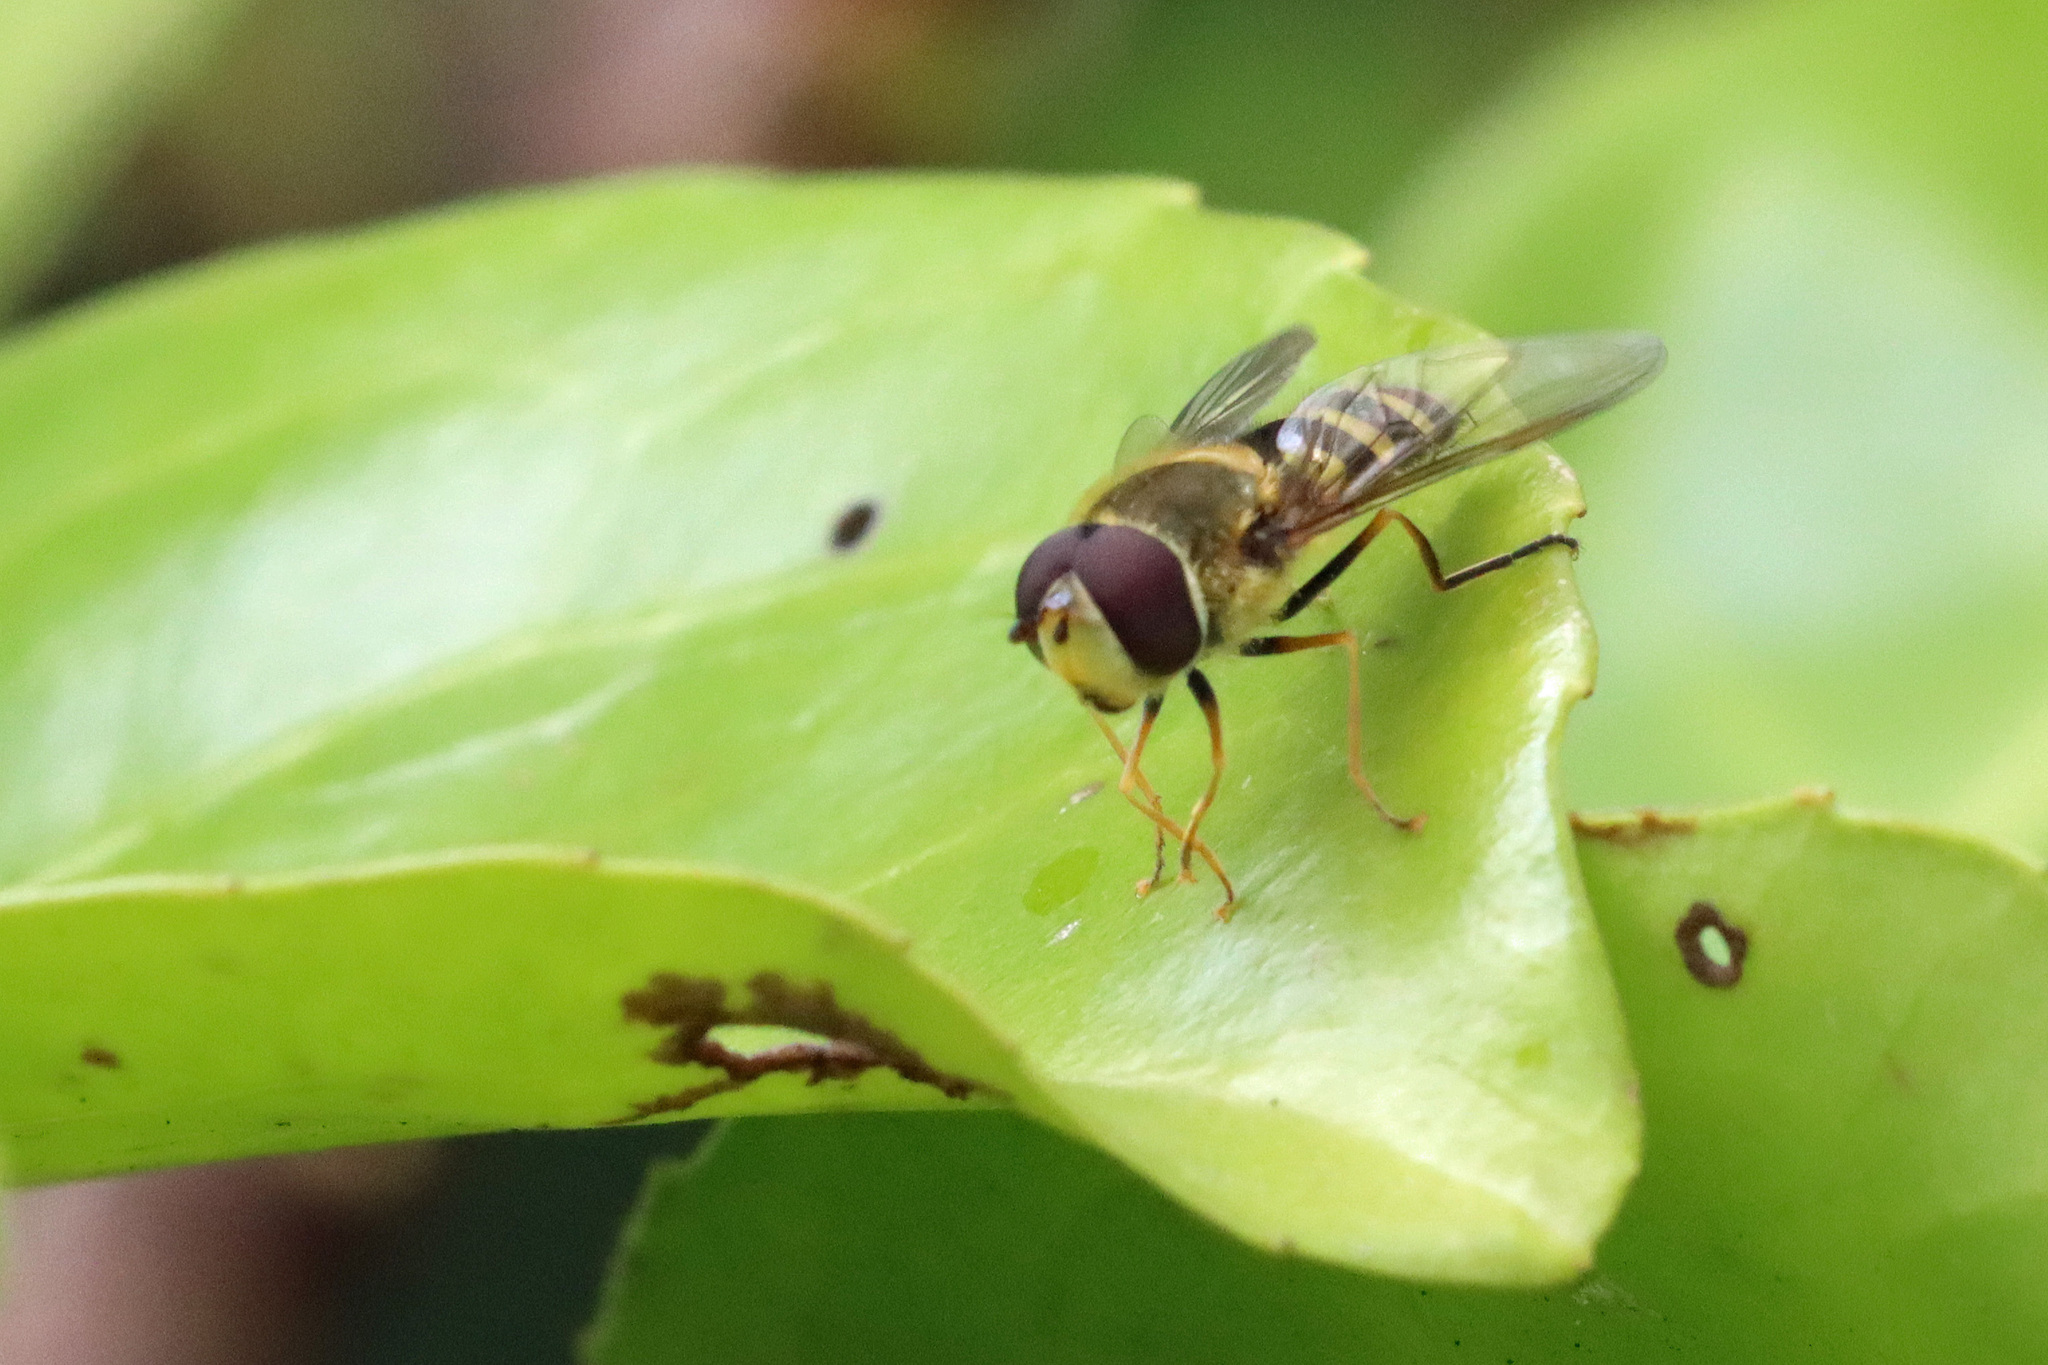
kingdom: Animalia
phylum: Arthropoda
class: Insecta
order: Diptera
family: Syrphidae
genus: Syrphus
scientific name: Syrphus
